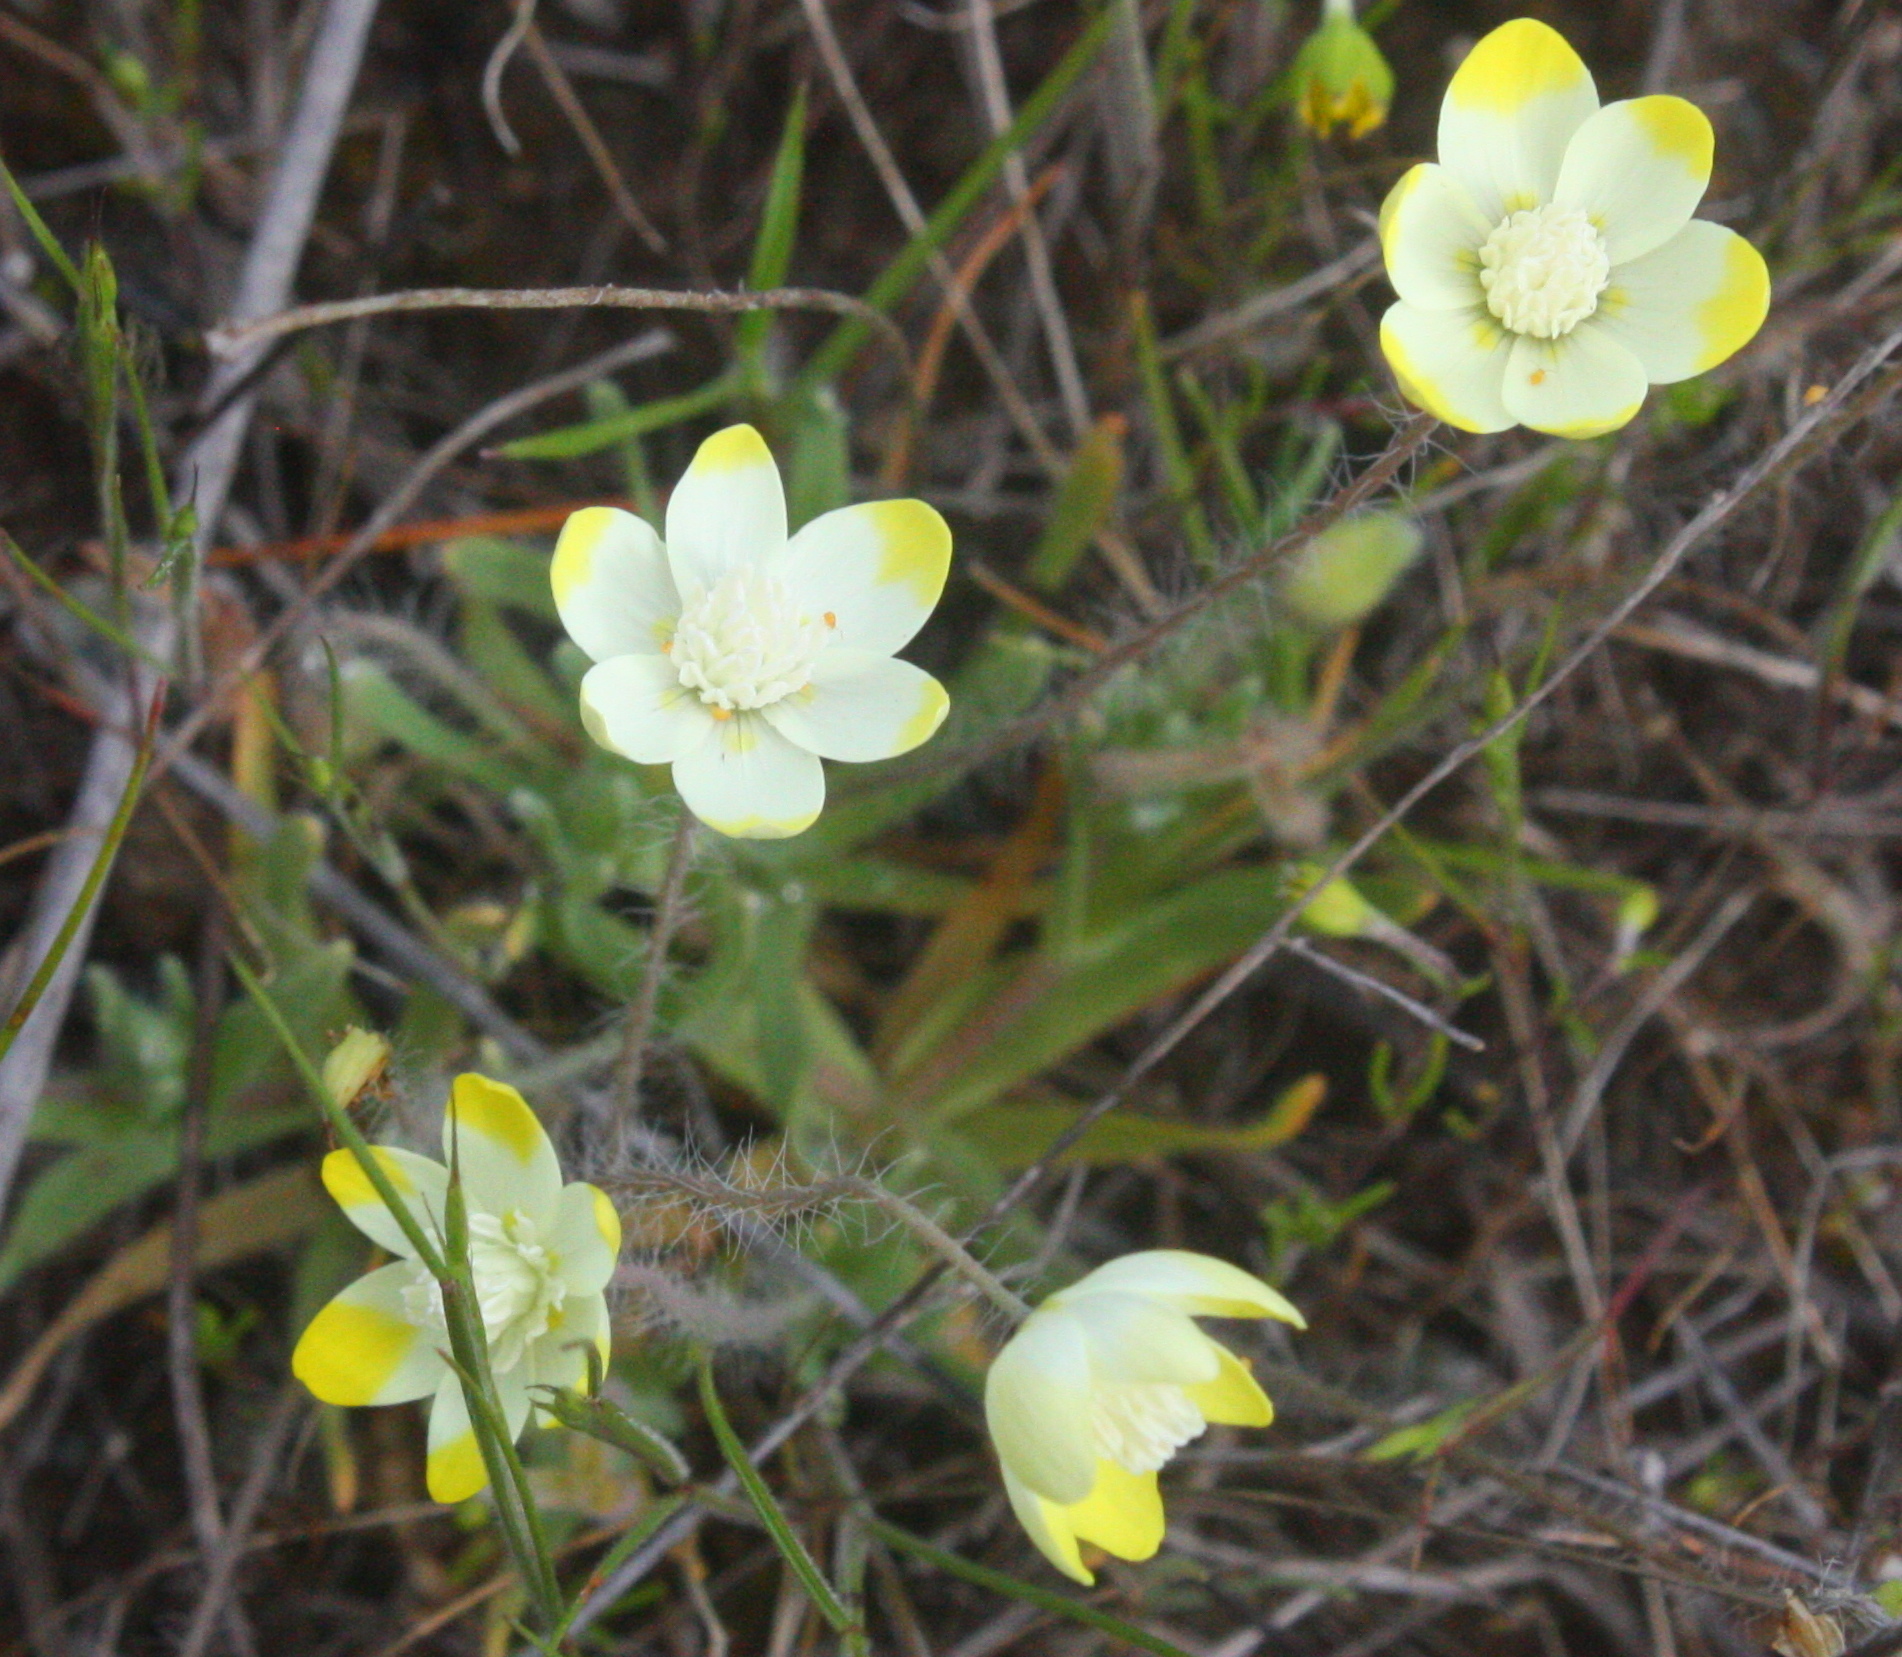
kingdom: Plantae
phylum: Tracheophyta
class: Magnoliopsida
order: Ranunculales
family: Papaveraceae
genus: Platystemon
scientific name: Platystemon californicus
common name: Cream-cups
